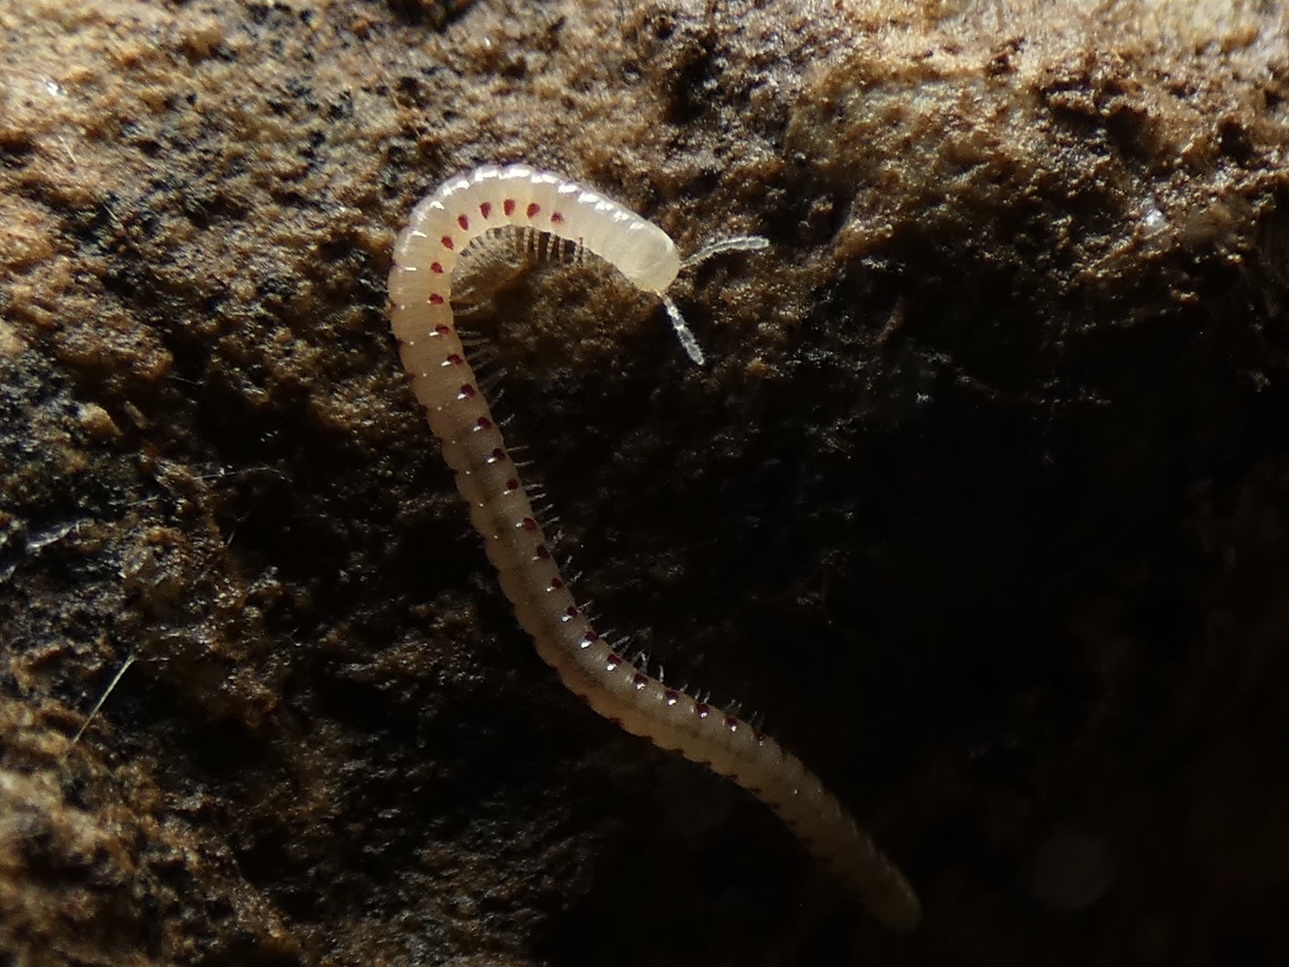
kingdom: Animalia
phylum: Arthropoda
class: Diplopoda
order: Julida
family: Blaniulidae
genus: Blaniulus
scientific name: Blaniulus guttulatus
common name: Spotted snake millipede
